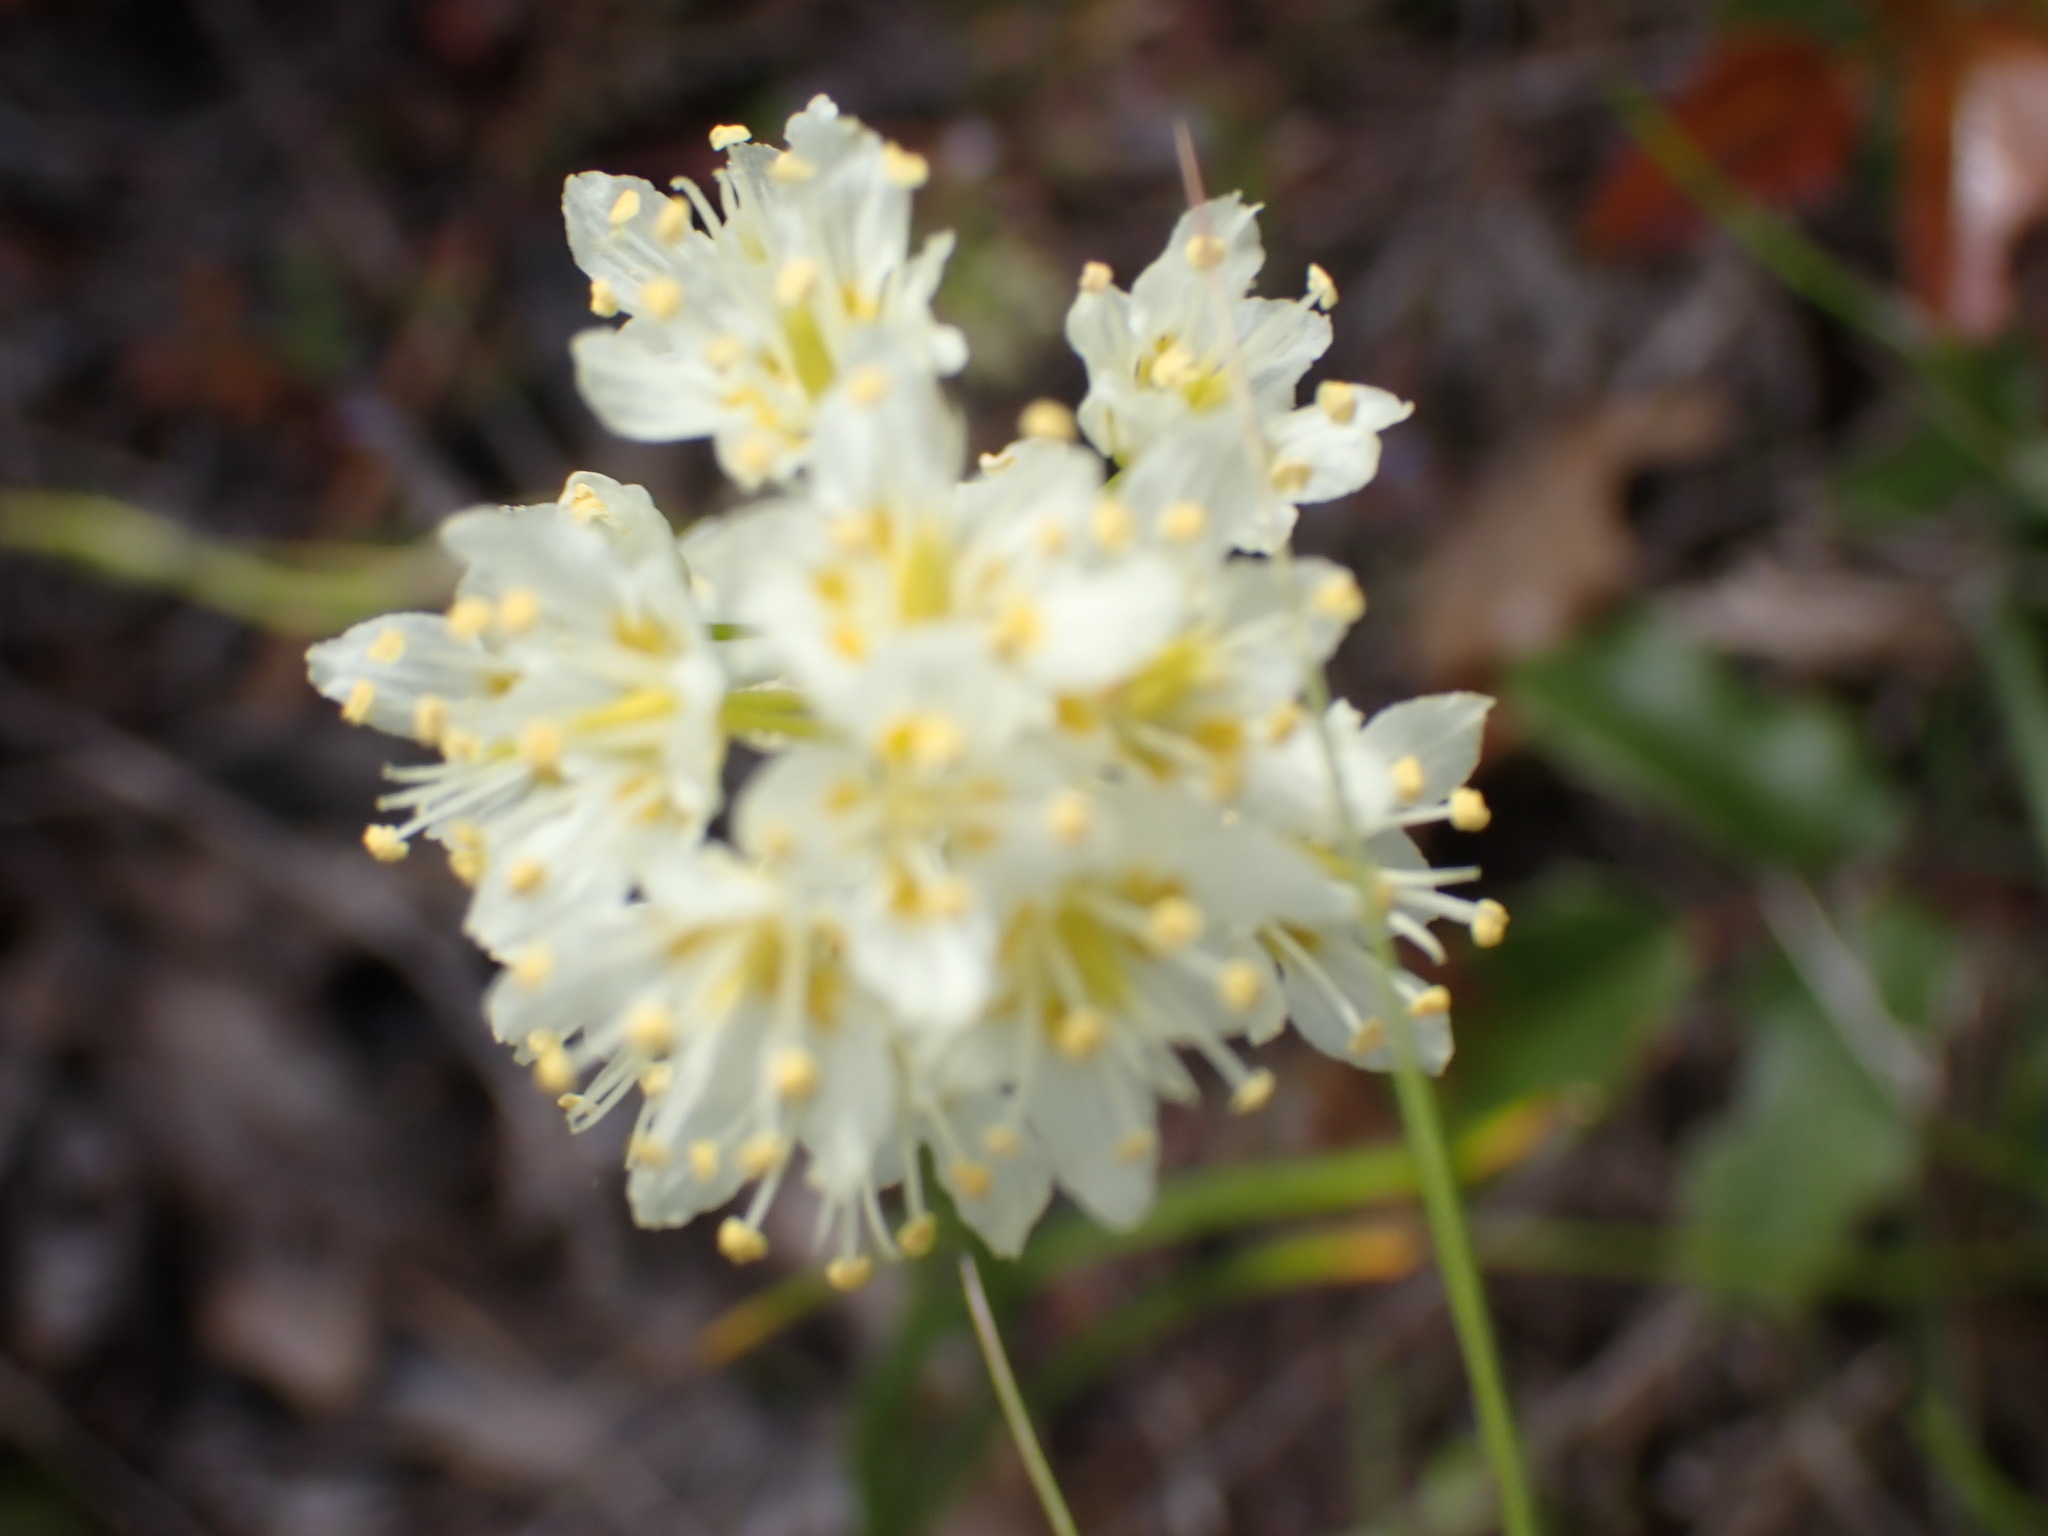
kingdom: Plantae
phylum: Tracheophyta
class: Liliopsida
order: Liliales
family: Melanthiaceae
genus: Toxicoscordion
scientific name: Toxicoscordion venenosum
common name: Meadow death camas
